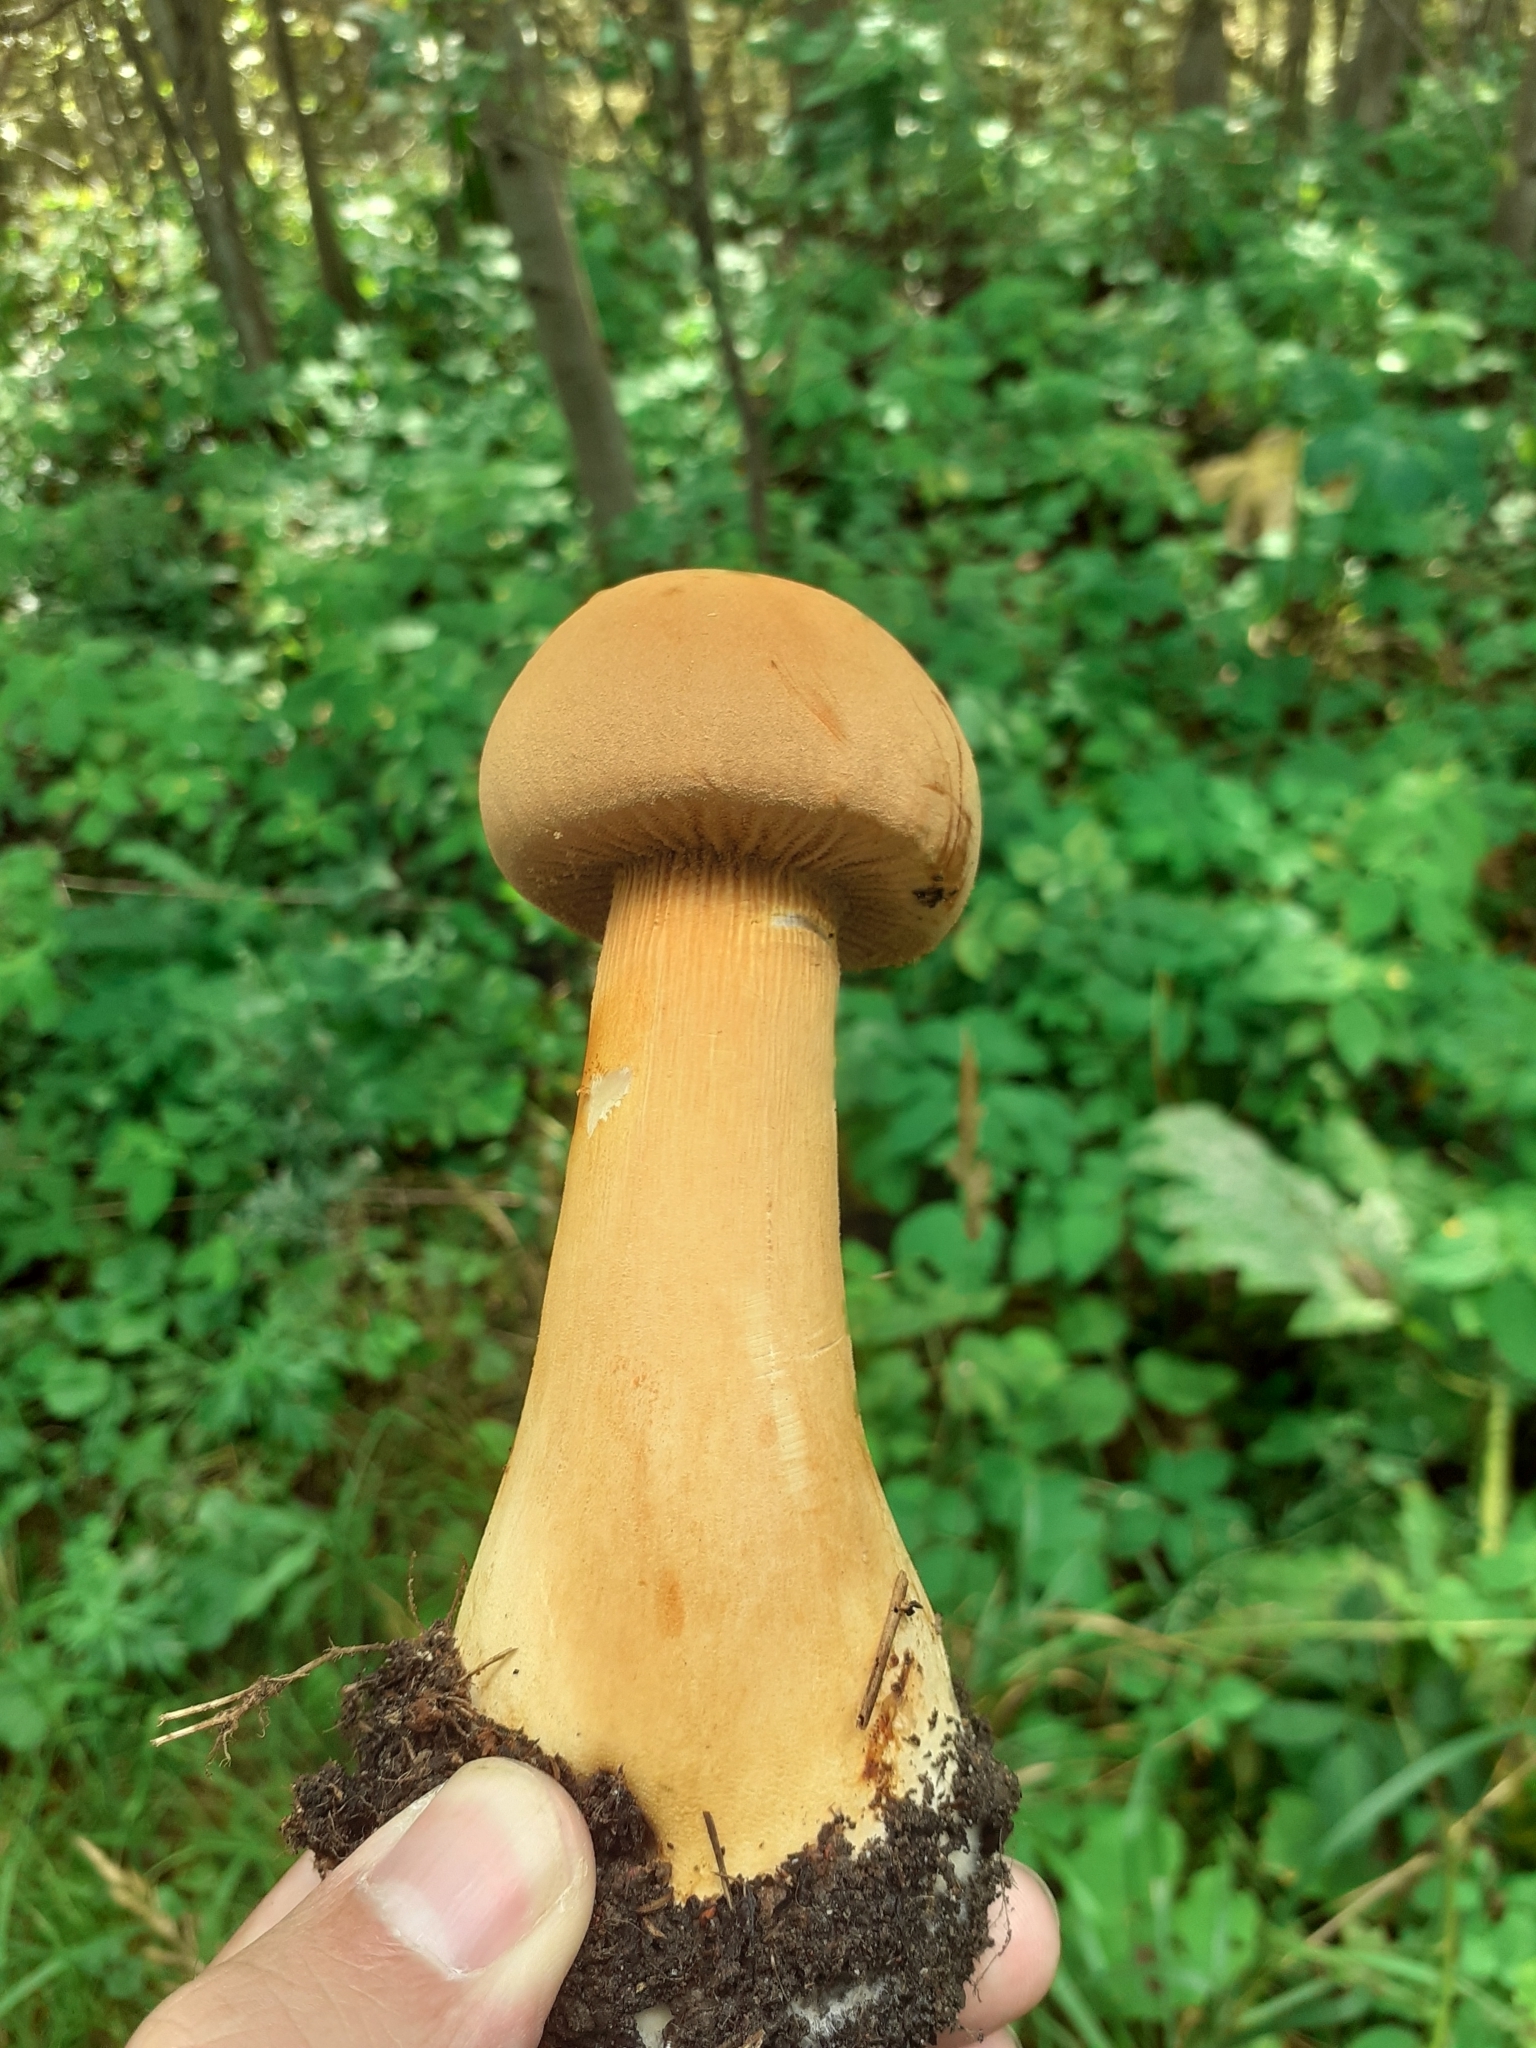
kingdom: Fungi
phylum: Basidiomycota
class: Agaricomycetes
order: Agaricales
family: Tricholomataceae
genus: Phaeolepiota
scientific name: Phaeolepiota aurea
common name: Golden bootleg
